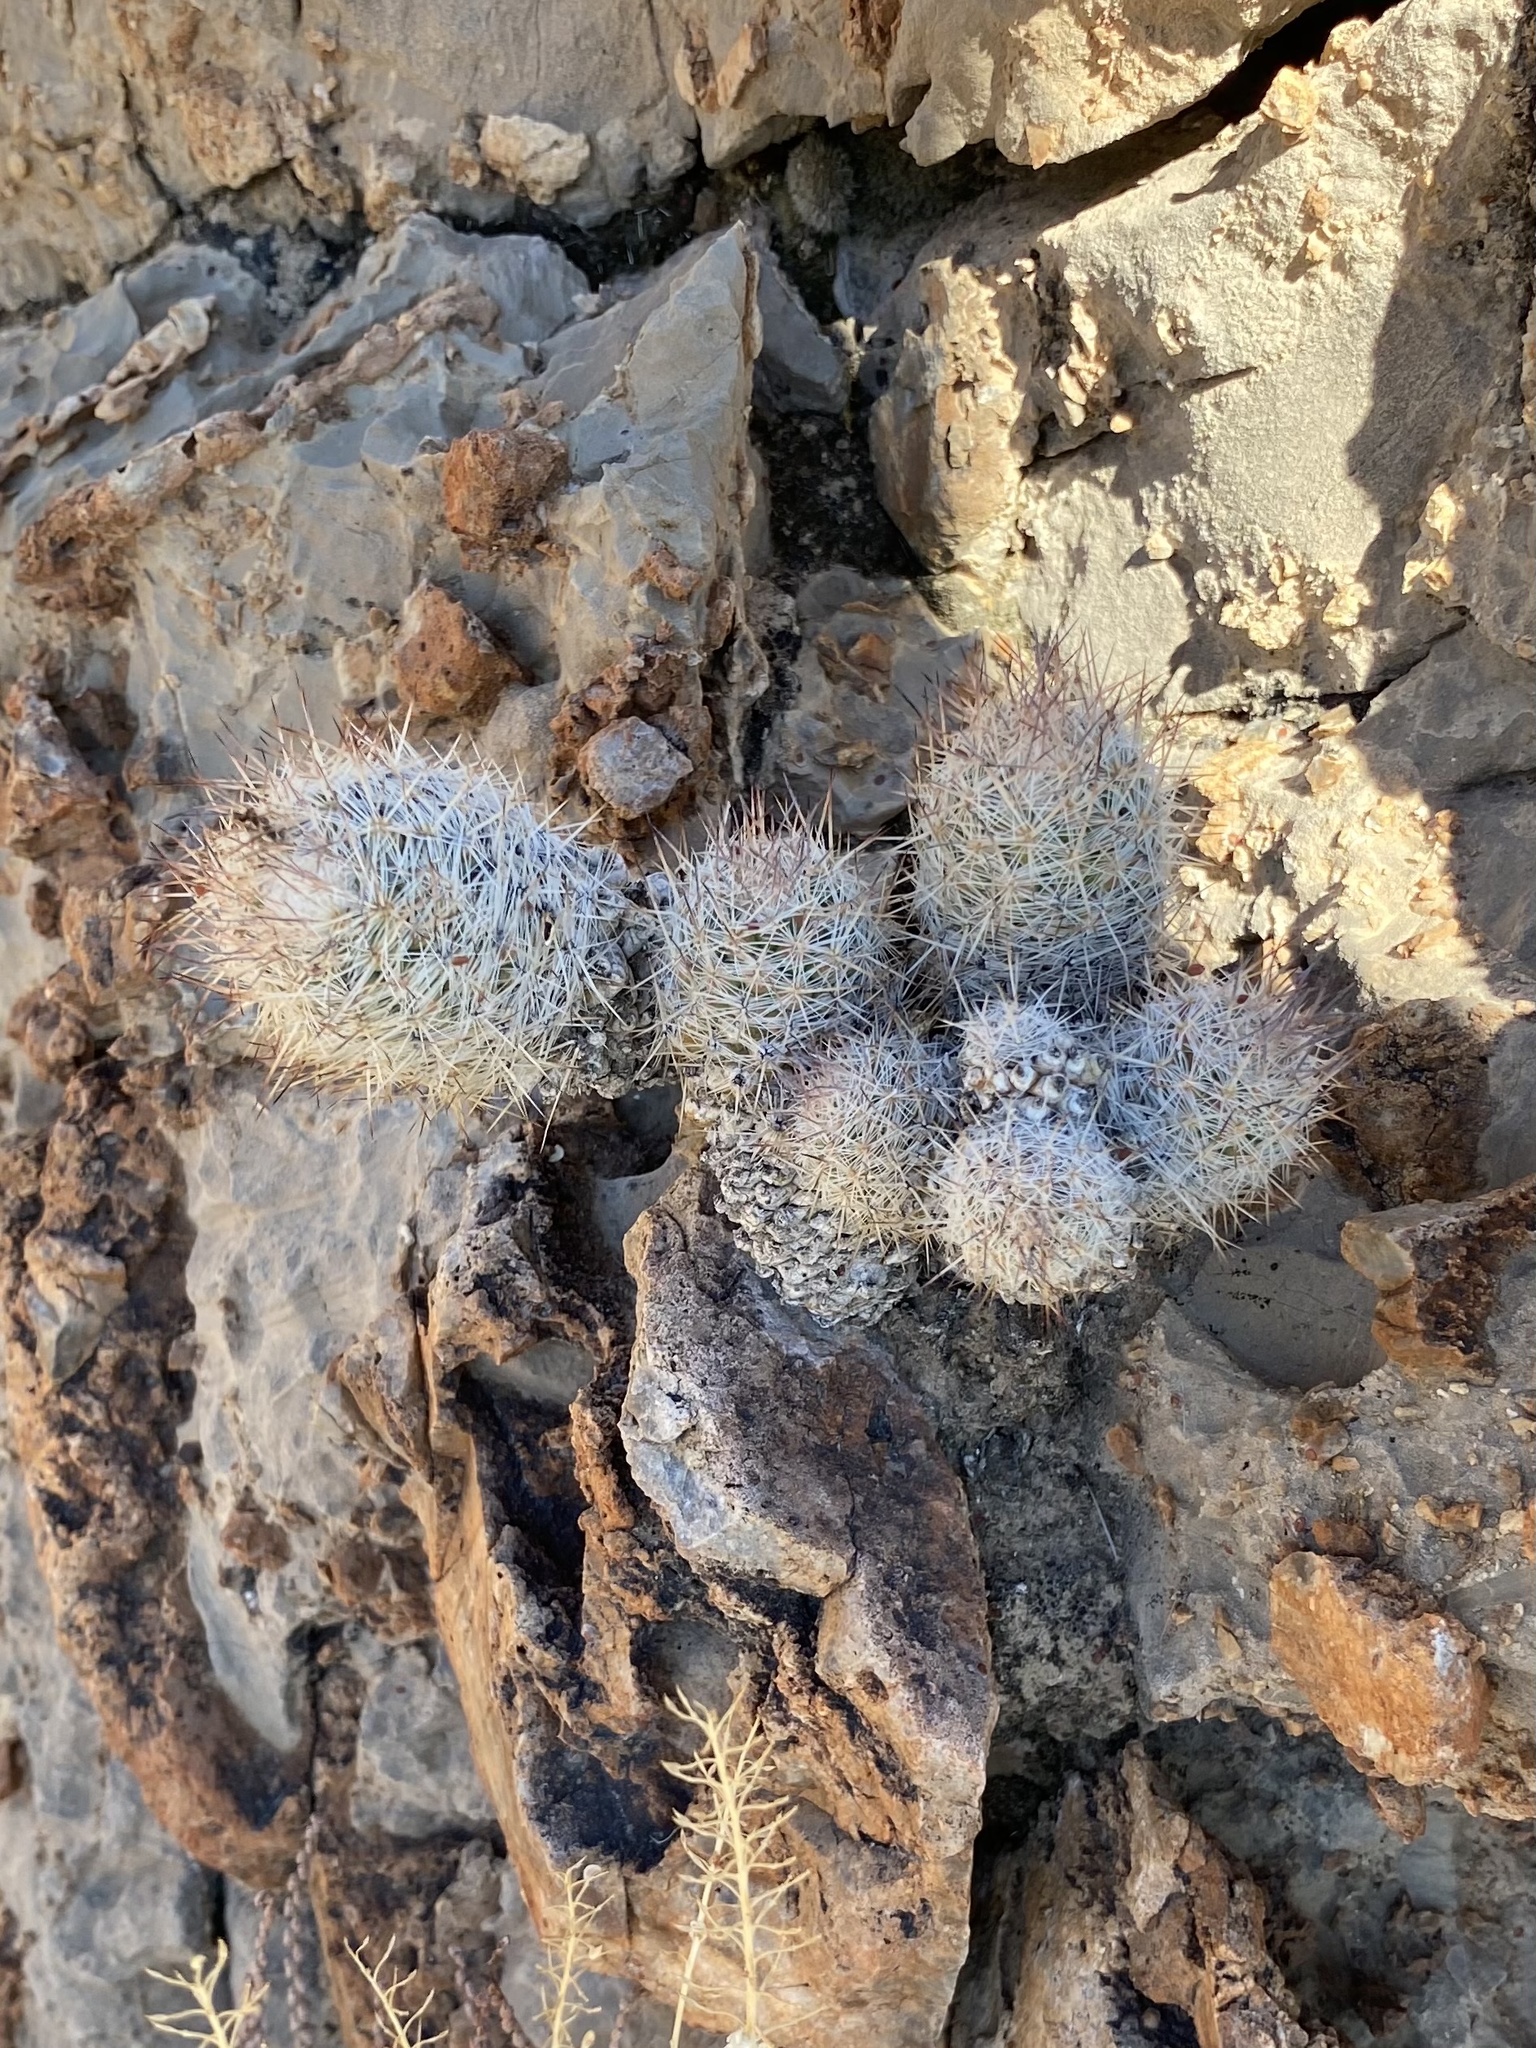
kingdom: Plantae
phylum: Tracheophyta
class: Magnoliopsida
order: Caryophyllales
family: Cactaceae
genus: Pelecyphora
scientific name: Pelecyphora tuberculosa
